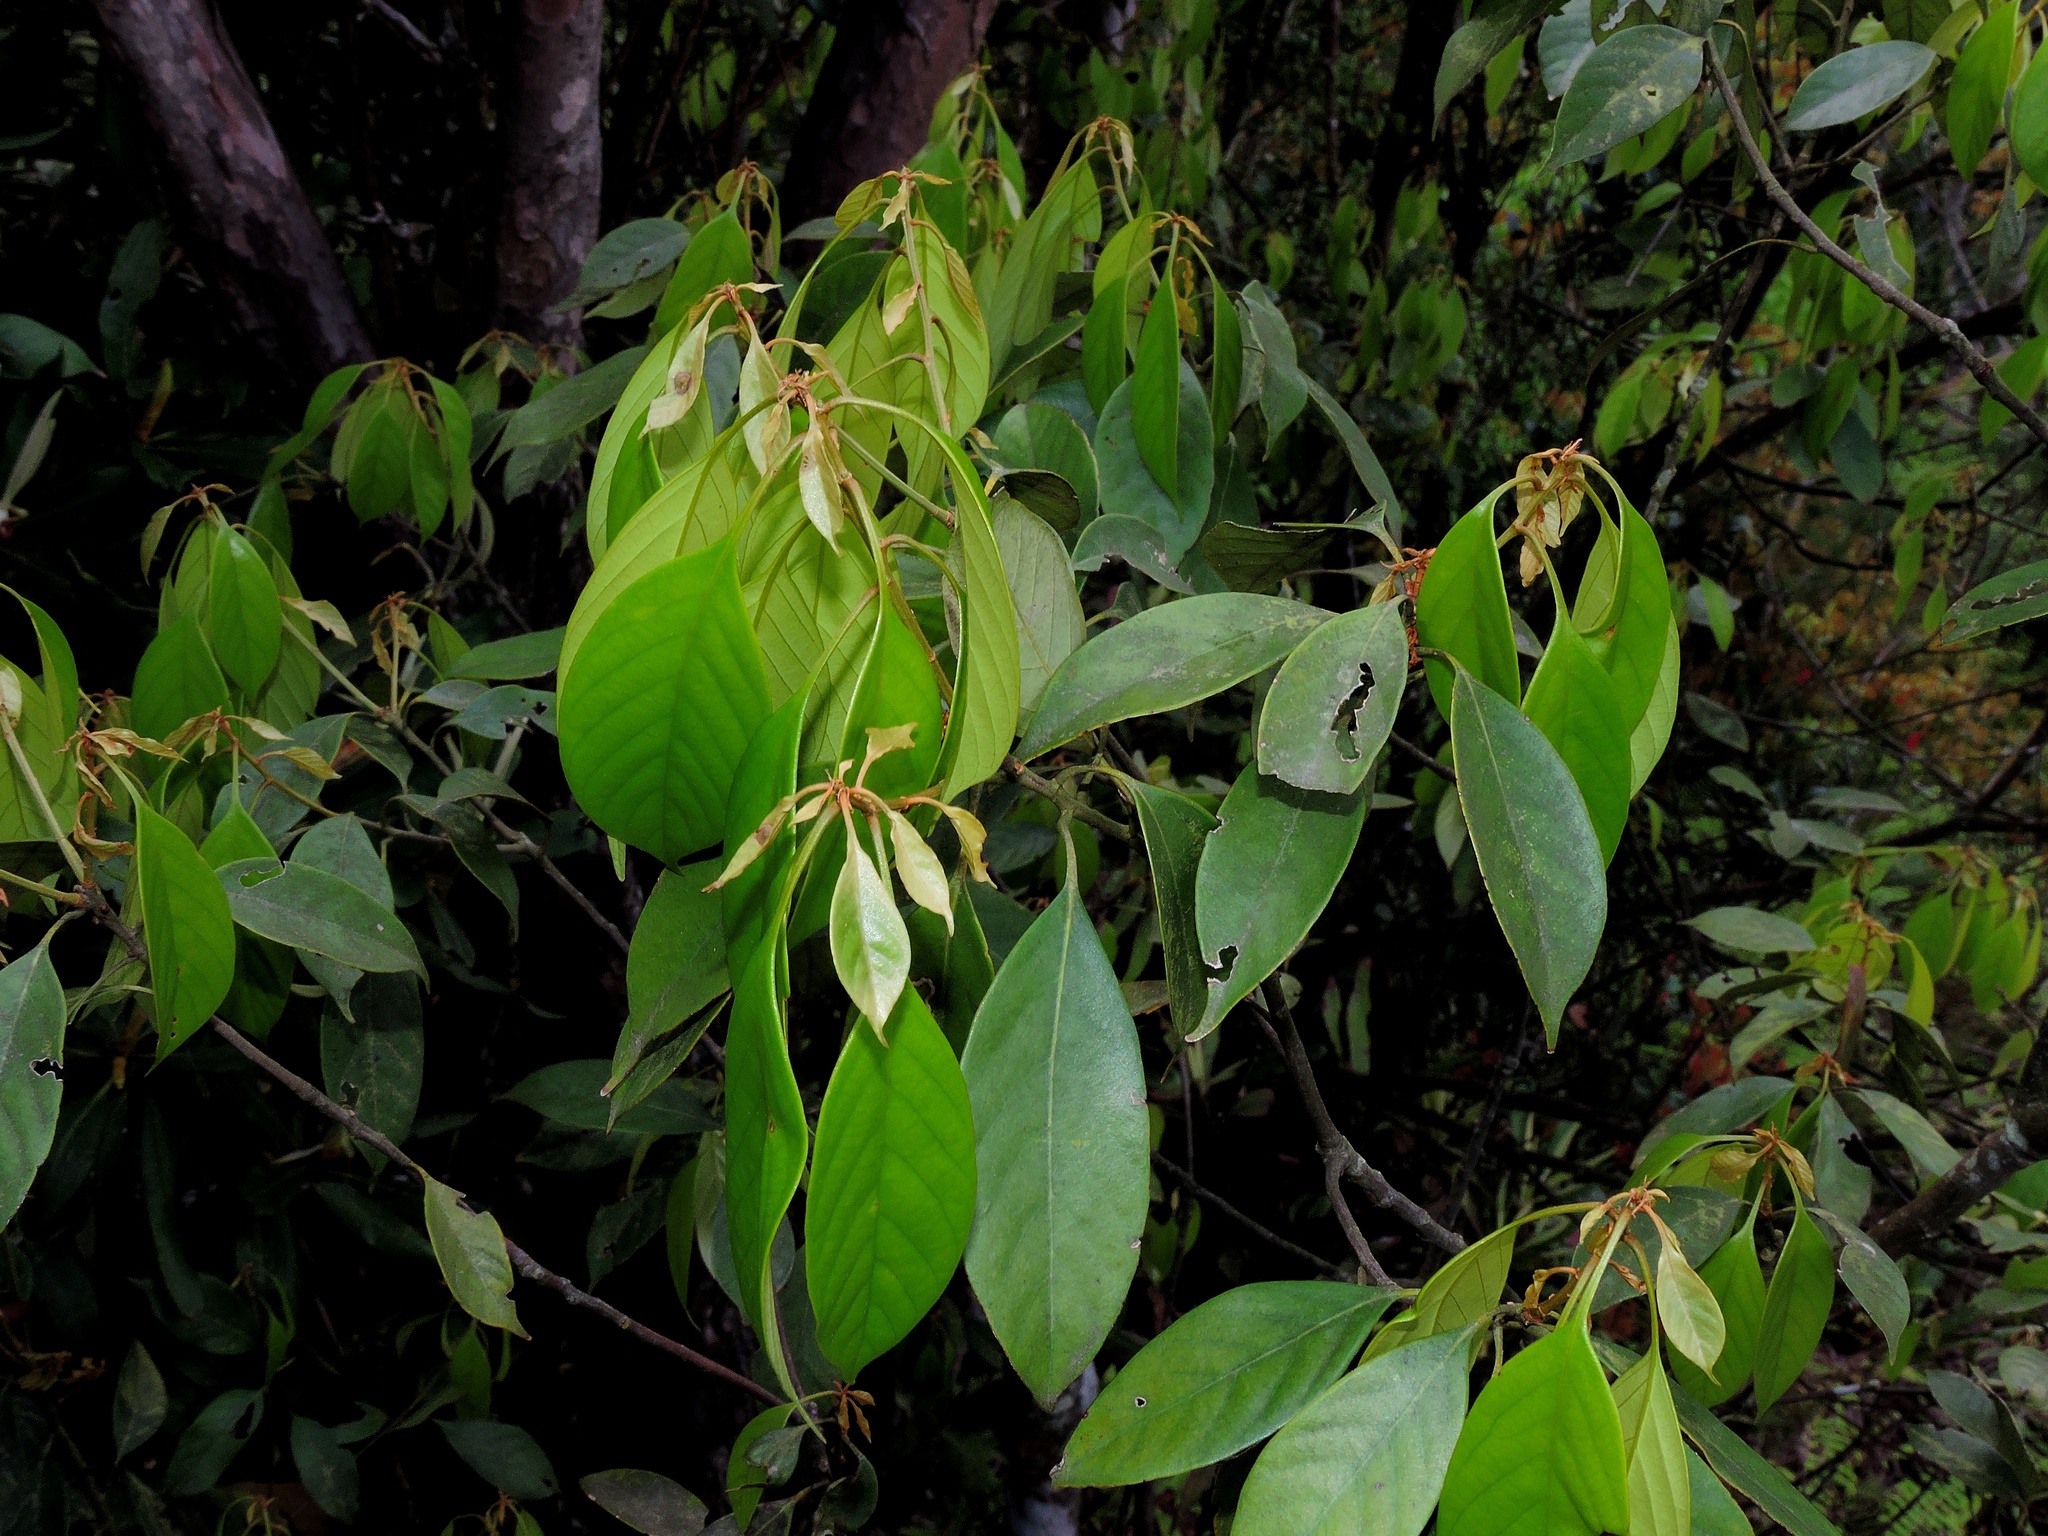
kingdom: Plantae
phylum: Tracheophyta
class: Magnoliopsida
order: Fagales
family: Fagaceae
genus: Lithocarpus
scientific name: Lithocarpus taitoensis
